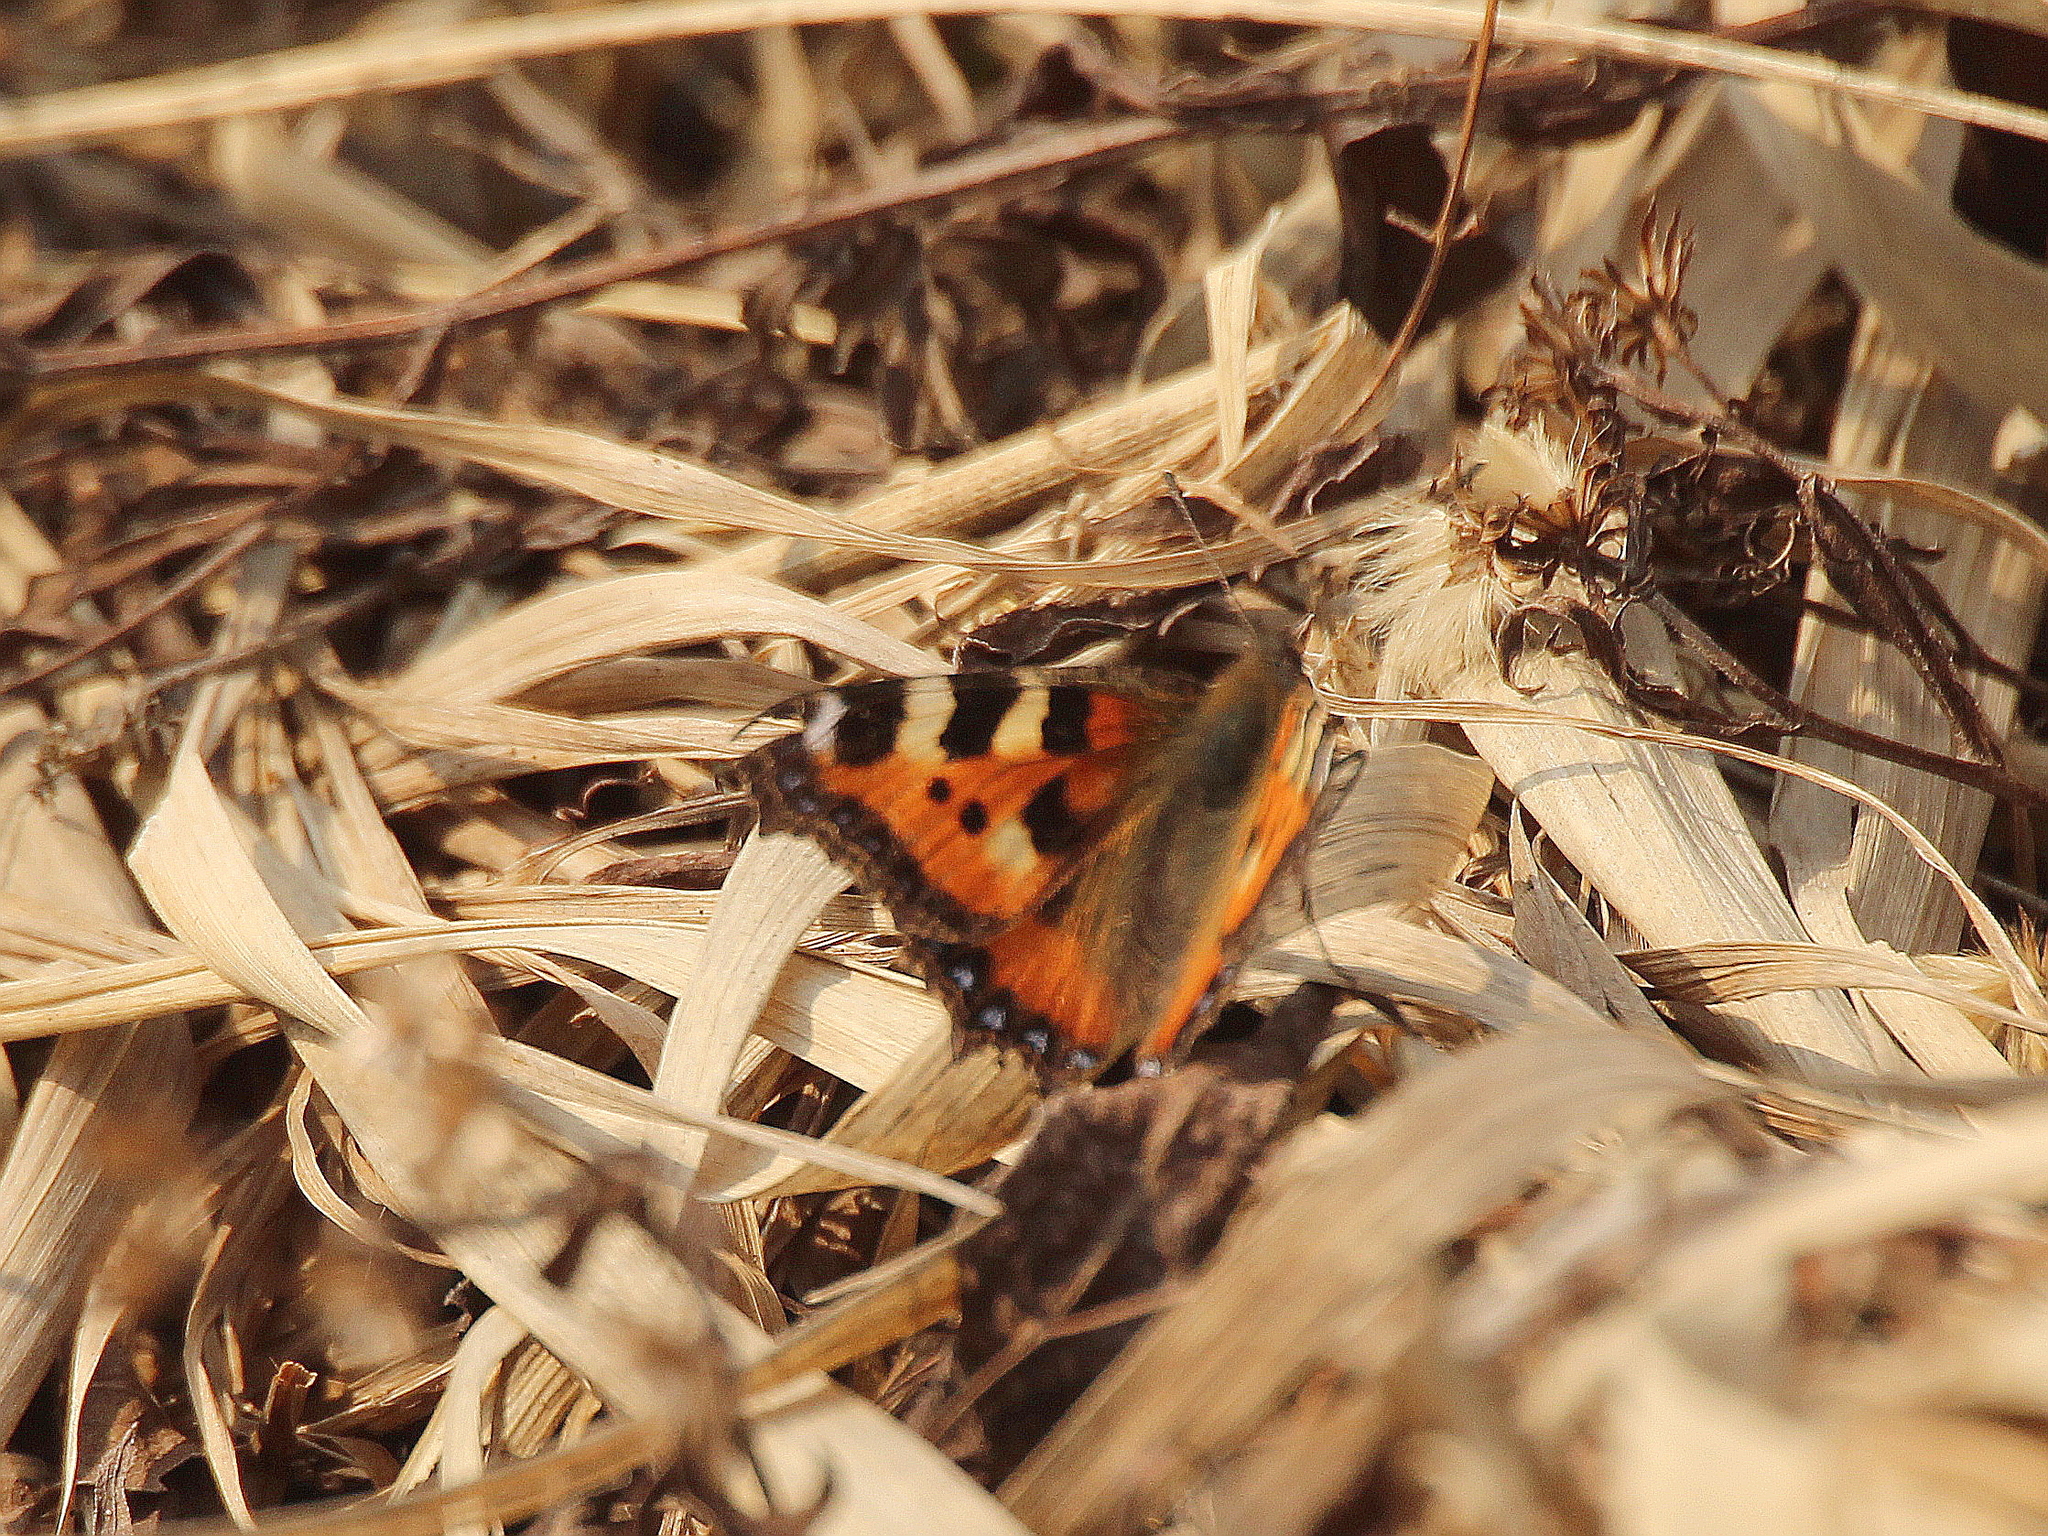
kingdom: Animalia
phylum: Arthropoda
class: Insecta
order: Lepidoptera
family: Nymphalidae
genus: Aglais
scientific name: Aglais urticae
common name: Small tortoiseshell
